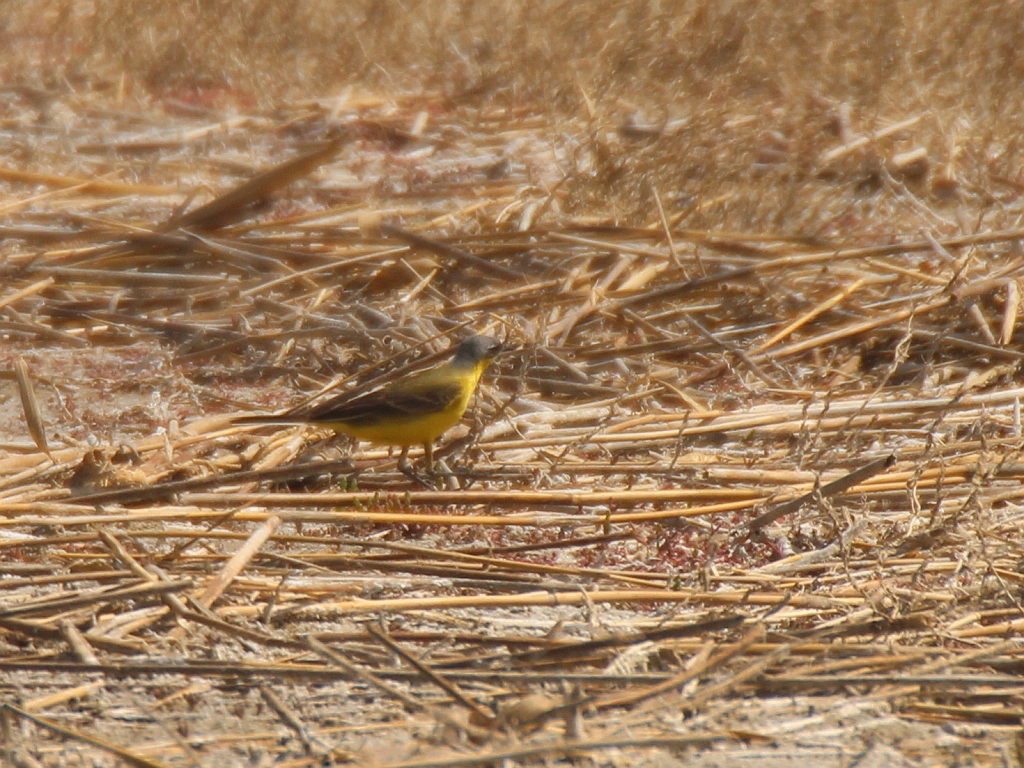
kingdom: Animalia
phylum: Chordata
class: Aves
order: Passeriformes
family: Motacillidae
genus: Motacilla
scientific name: Motacilla tschutschensis
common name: Eastern yellow wagtail
